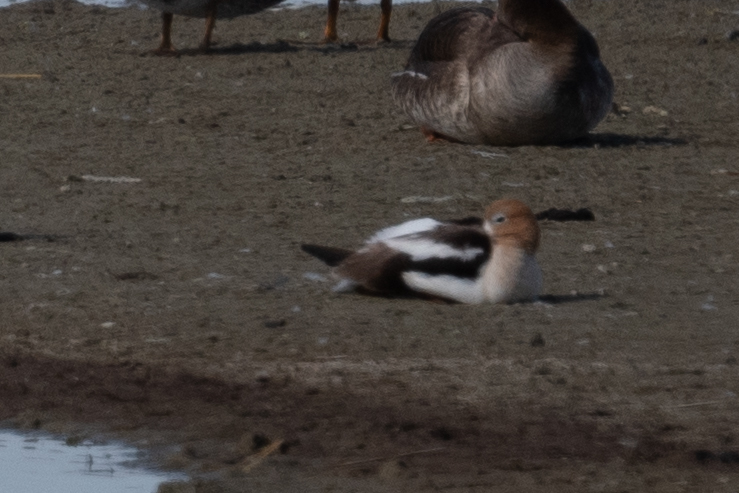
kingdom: Animalia
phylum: Chordata
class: Aves
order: Charadriiformes
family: Recurvirostridae
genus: Recurvirostra
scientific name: Recurvirostra americana
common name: American avocet
